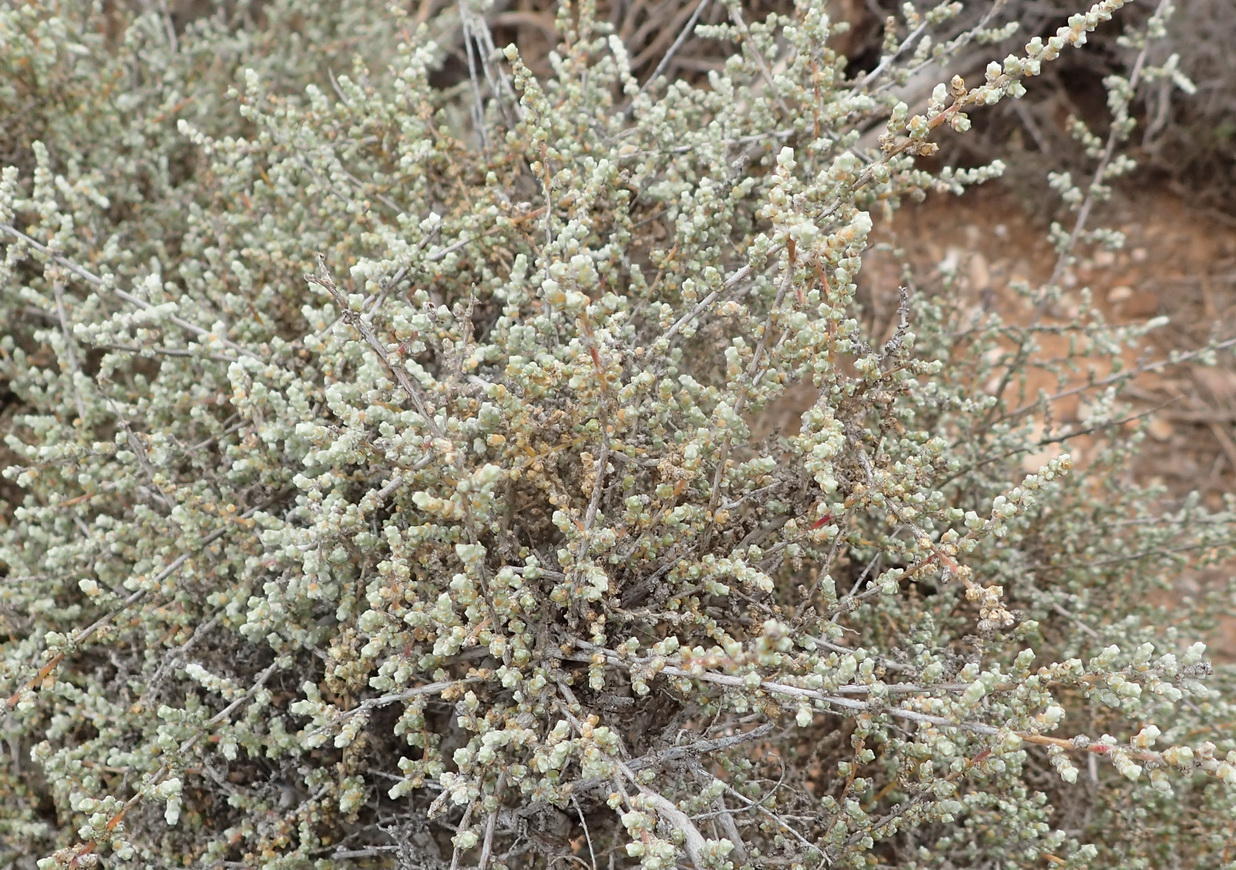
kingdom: Plantae
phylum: Tracheophyta
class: Magnoliopsida
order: Caryophyllales
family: Amaranthaceae
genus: Caroxylon
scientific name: Caroxylon aphyllum
